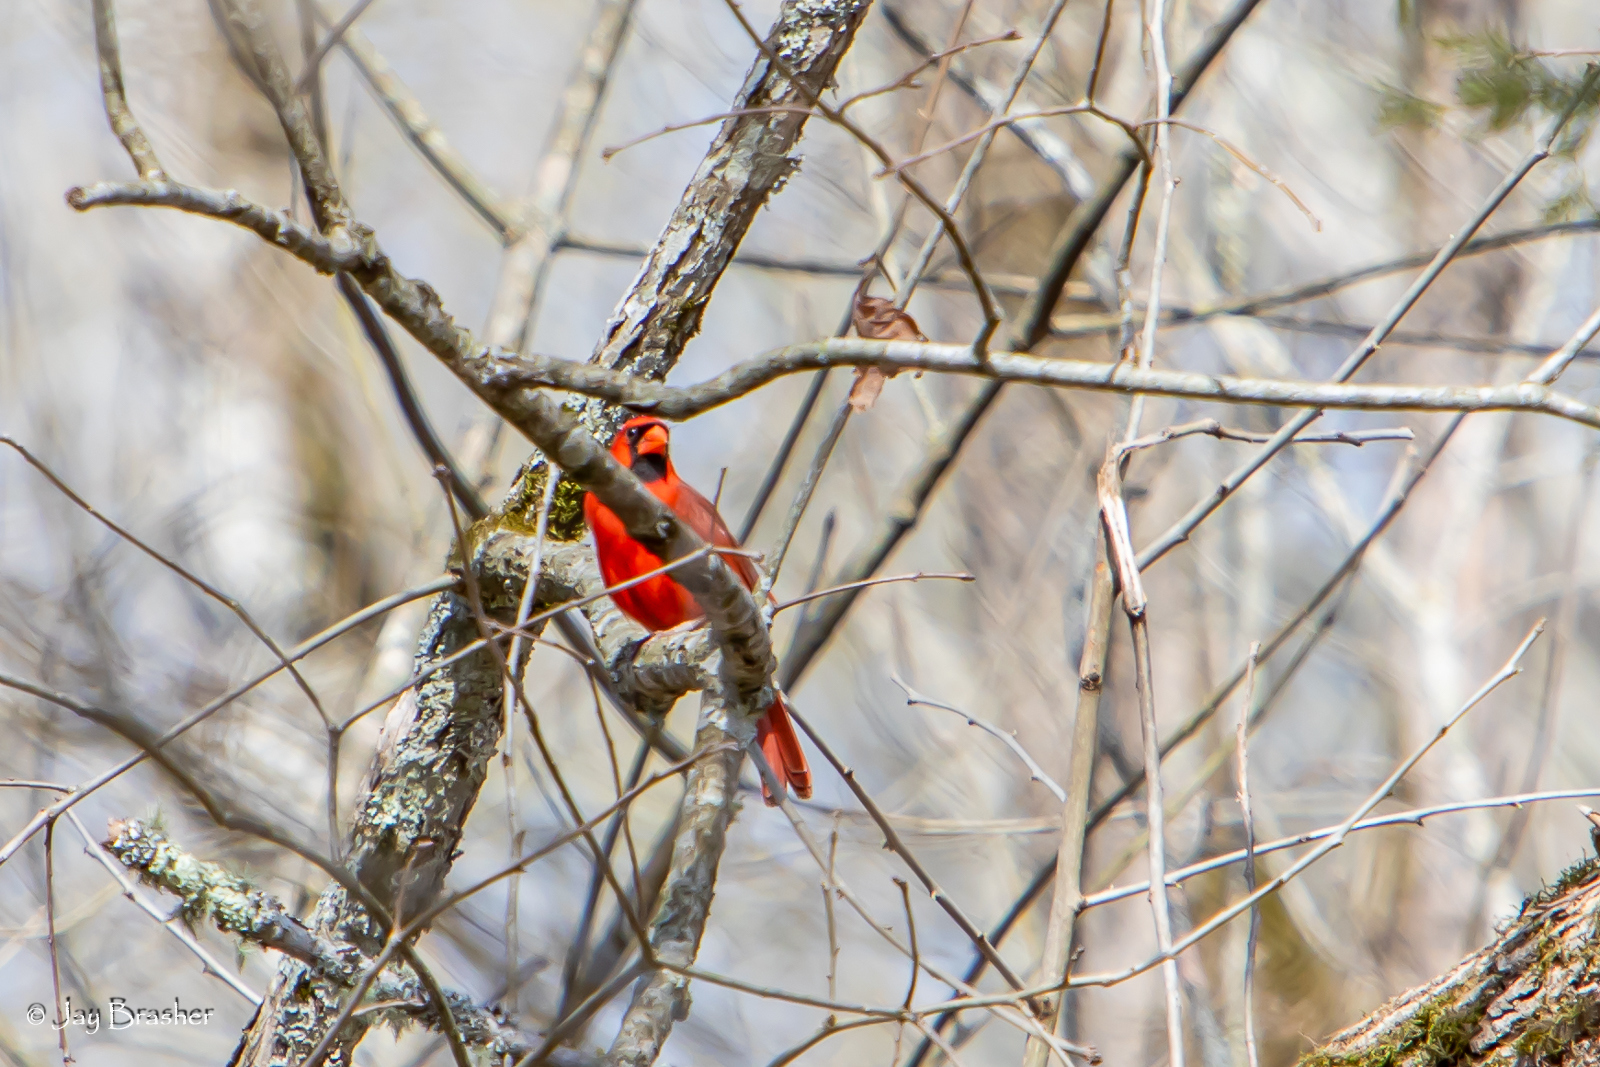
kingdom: Animalia
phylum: Chordata
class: Aves
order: Passeriformes
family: Cardinalidae
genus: Cardinalis
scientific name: Cardinalis cardinalis
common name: Northern cardinal
